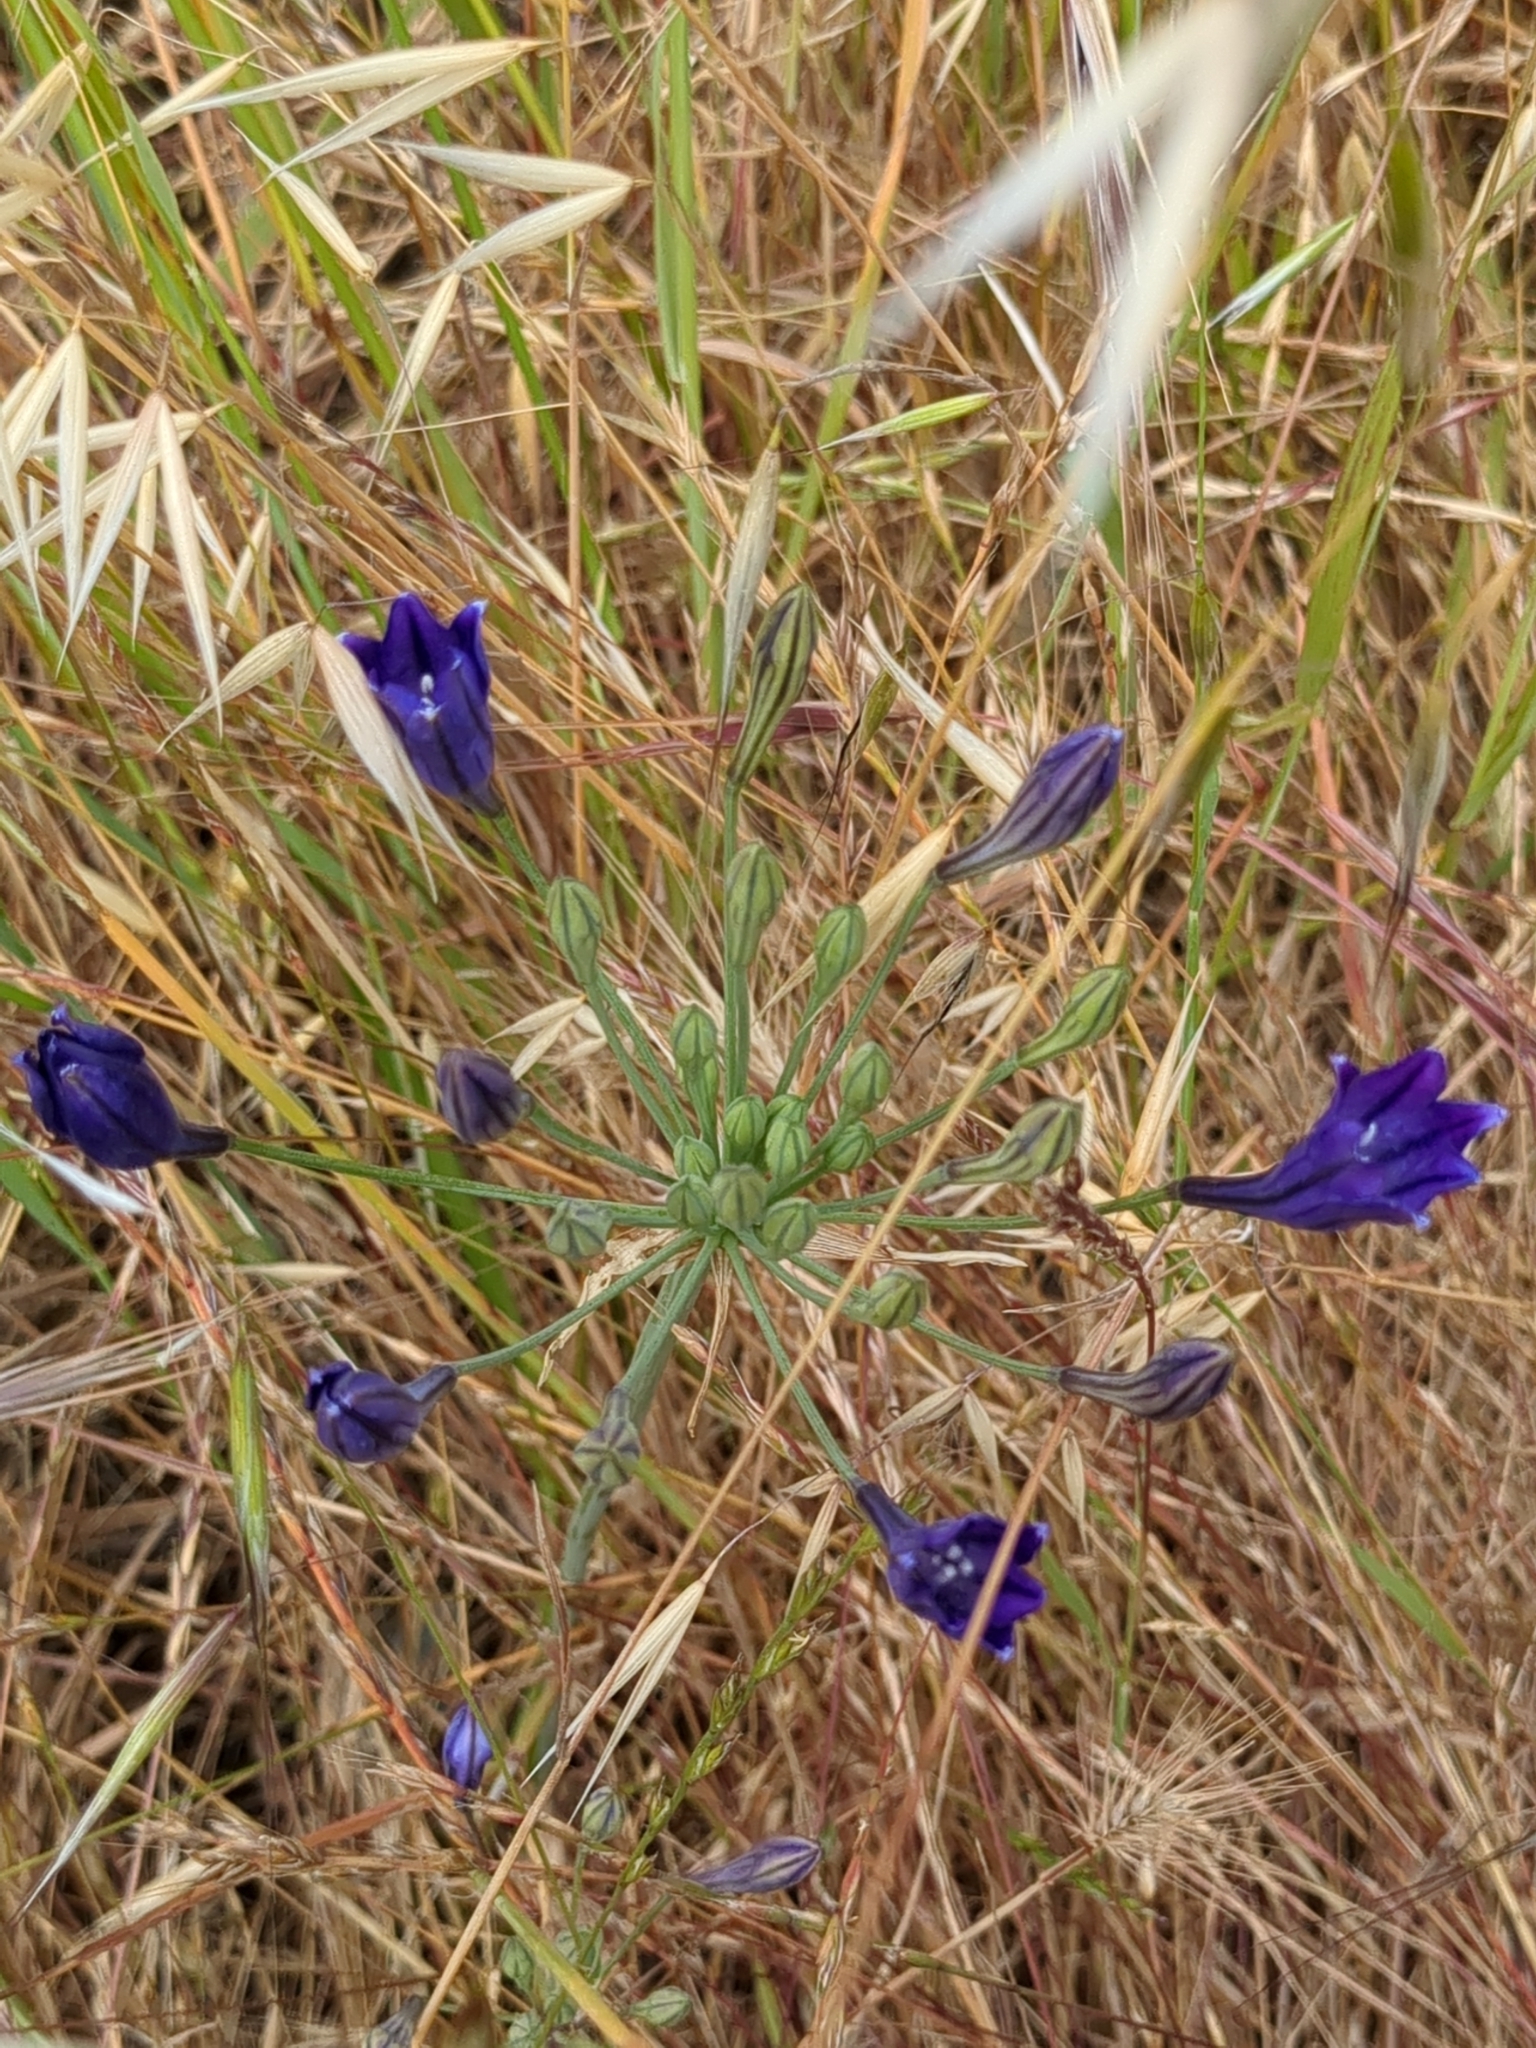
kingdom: Plantae
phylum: Tracheophyta
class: Liliopsida
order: Asparagales
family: Asparagaceae
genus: Triteleia
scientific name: Triteleia laxa
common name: Triplet-lily
